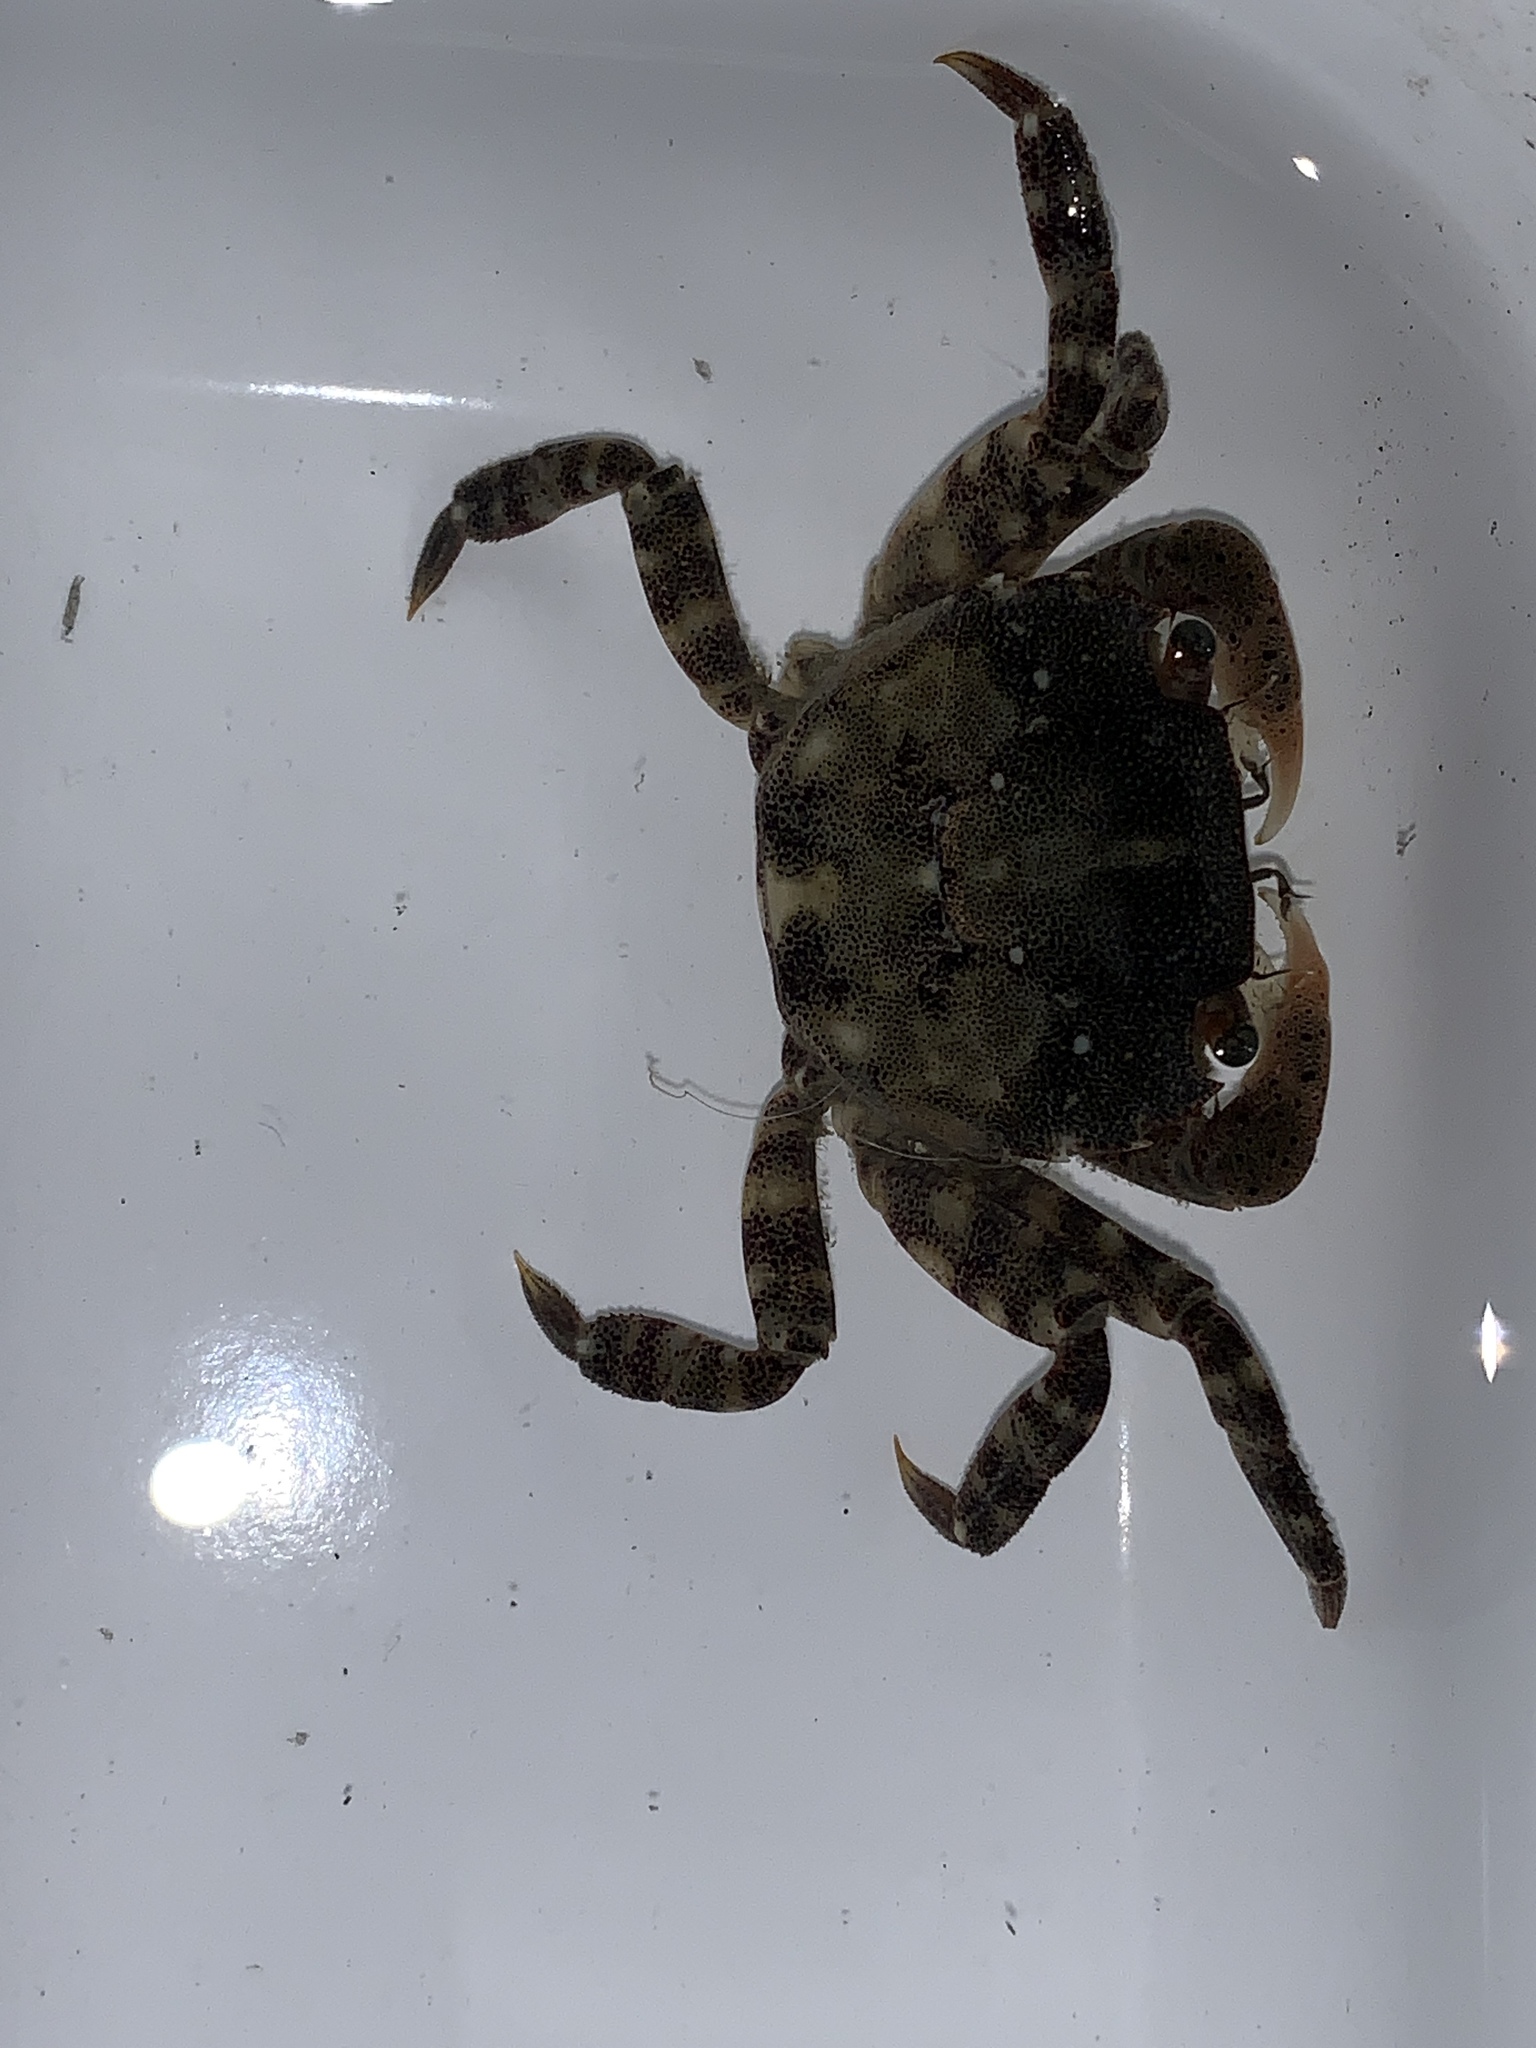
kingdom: Animalia
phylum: Arthropoda
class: Malacostraca
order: Decapoda
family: Varunidae
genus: Hemigrapsus
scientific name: Hemigrapsus sanguineus
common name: Asian shore crab
